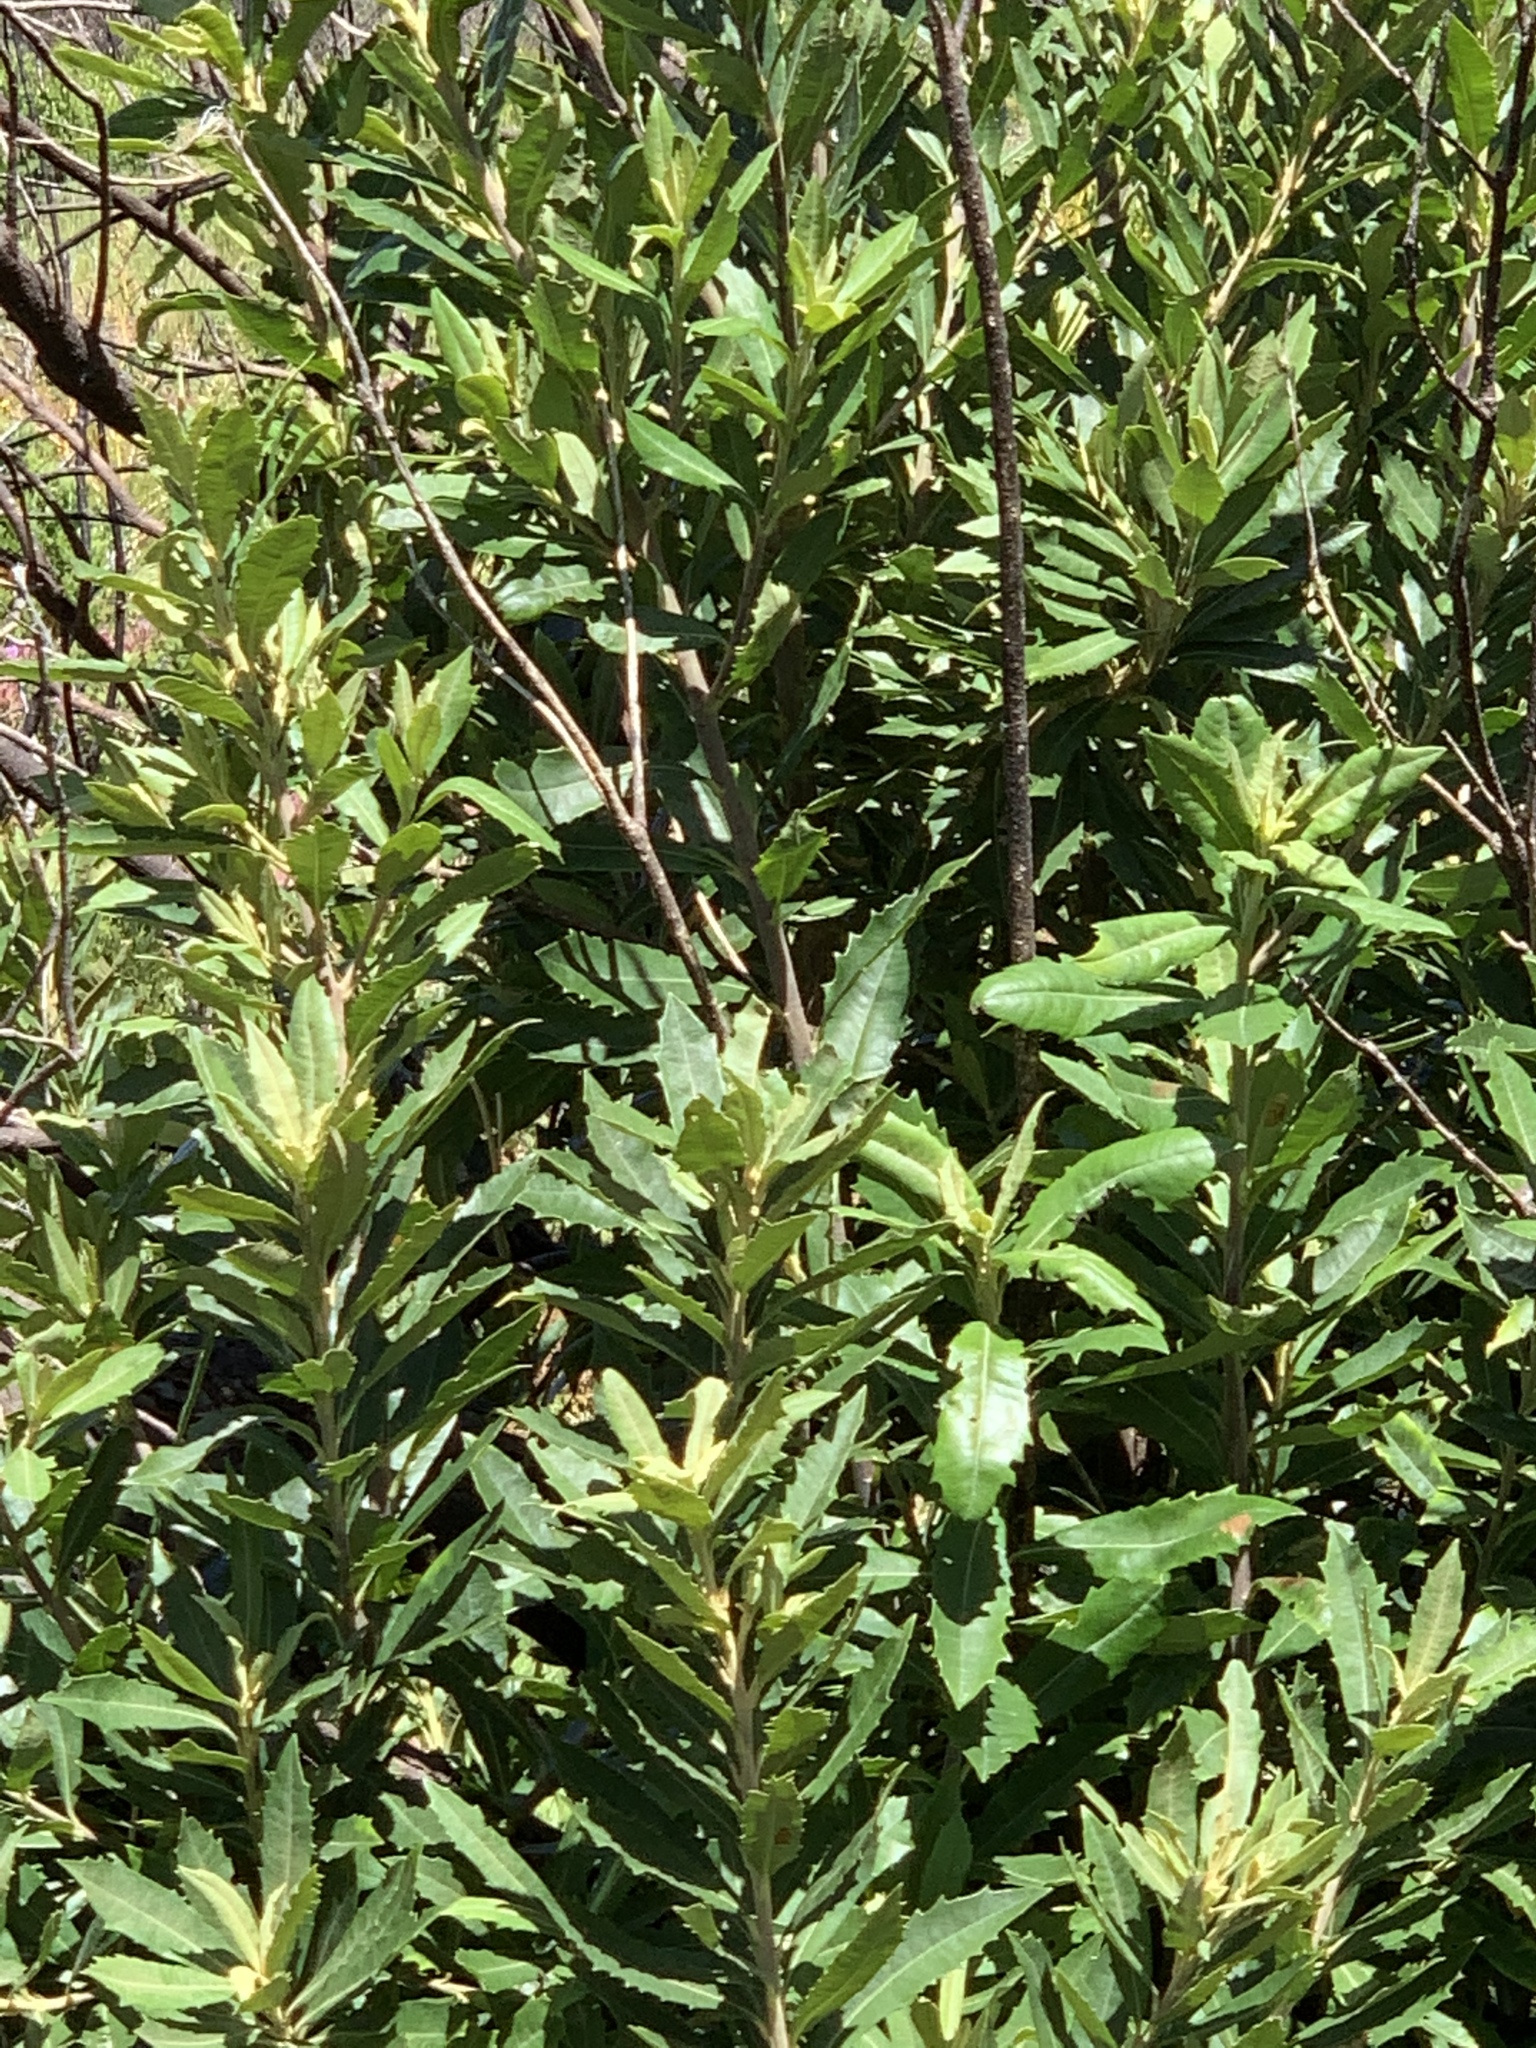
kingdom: Plantae
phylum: Tracheophyta
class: Magnoliopsida
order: Asterales
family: Asteraceae
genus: Brachylaena
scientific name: Brachylaena neriifolia
